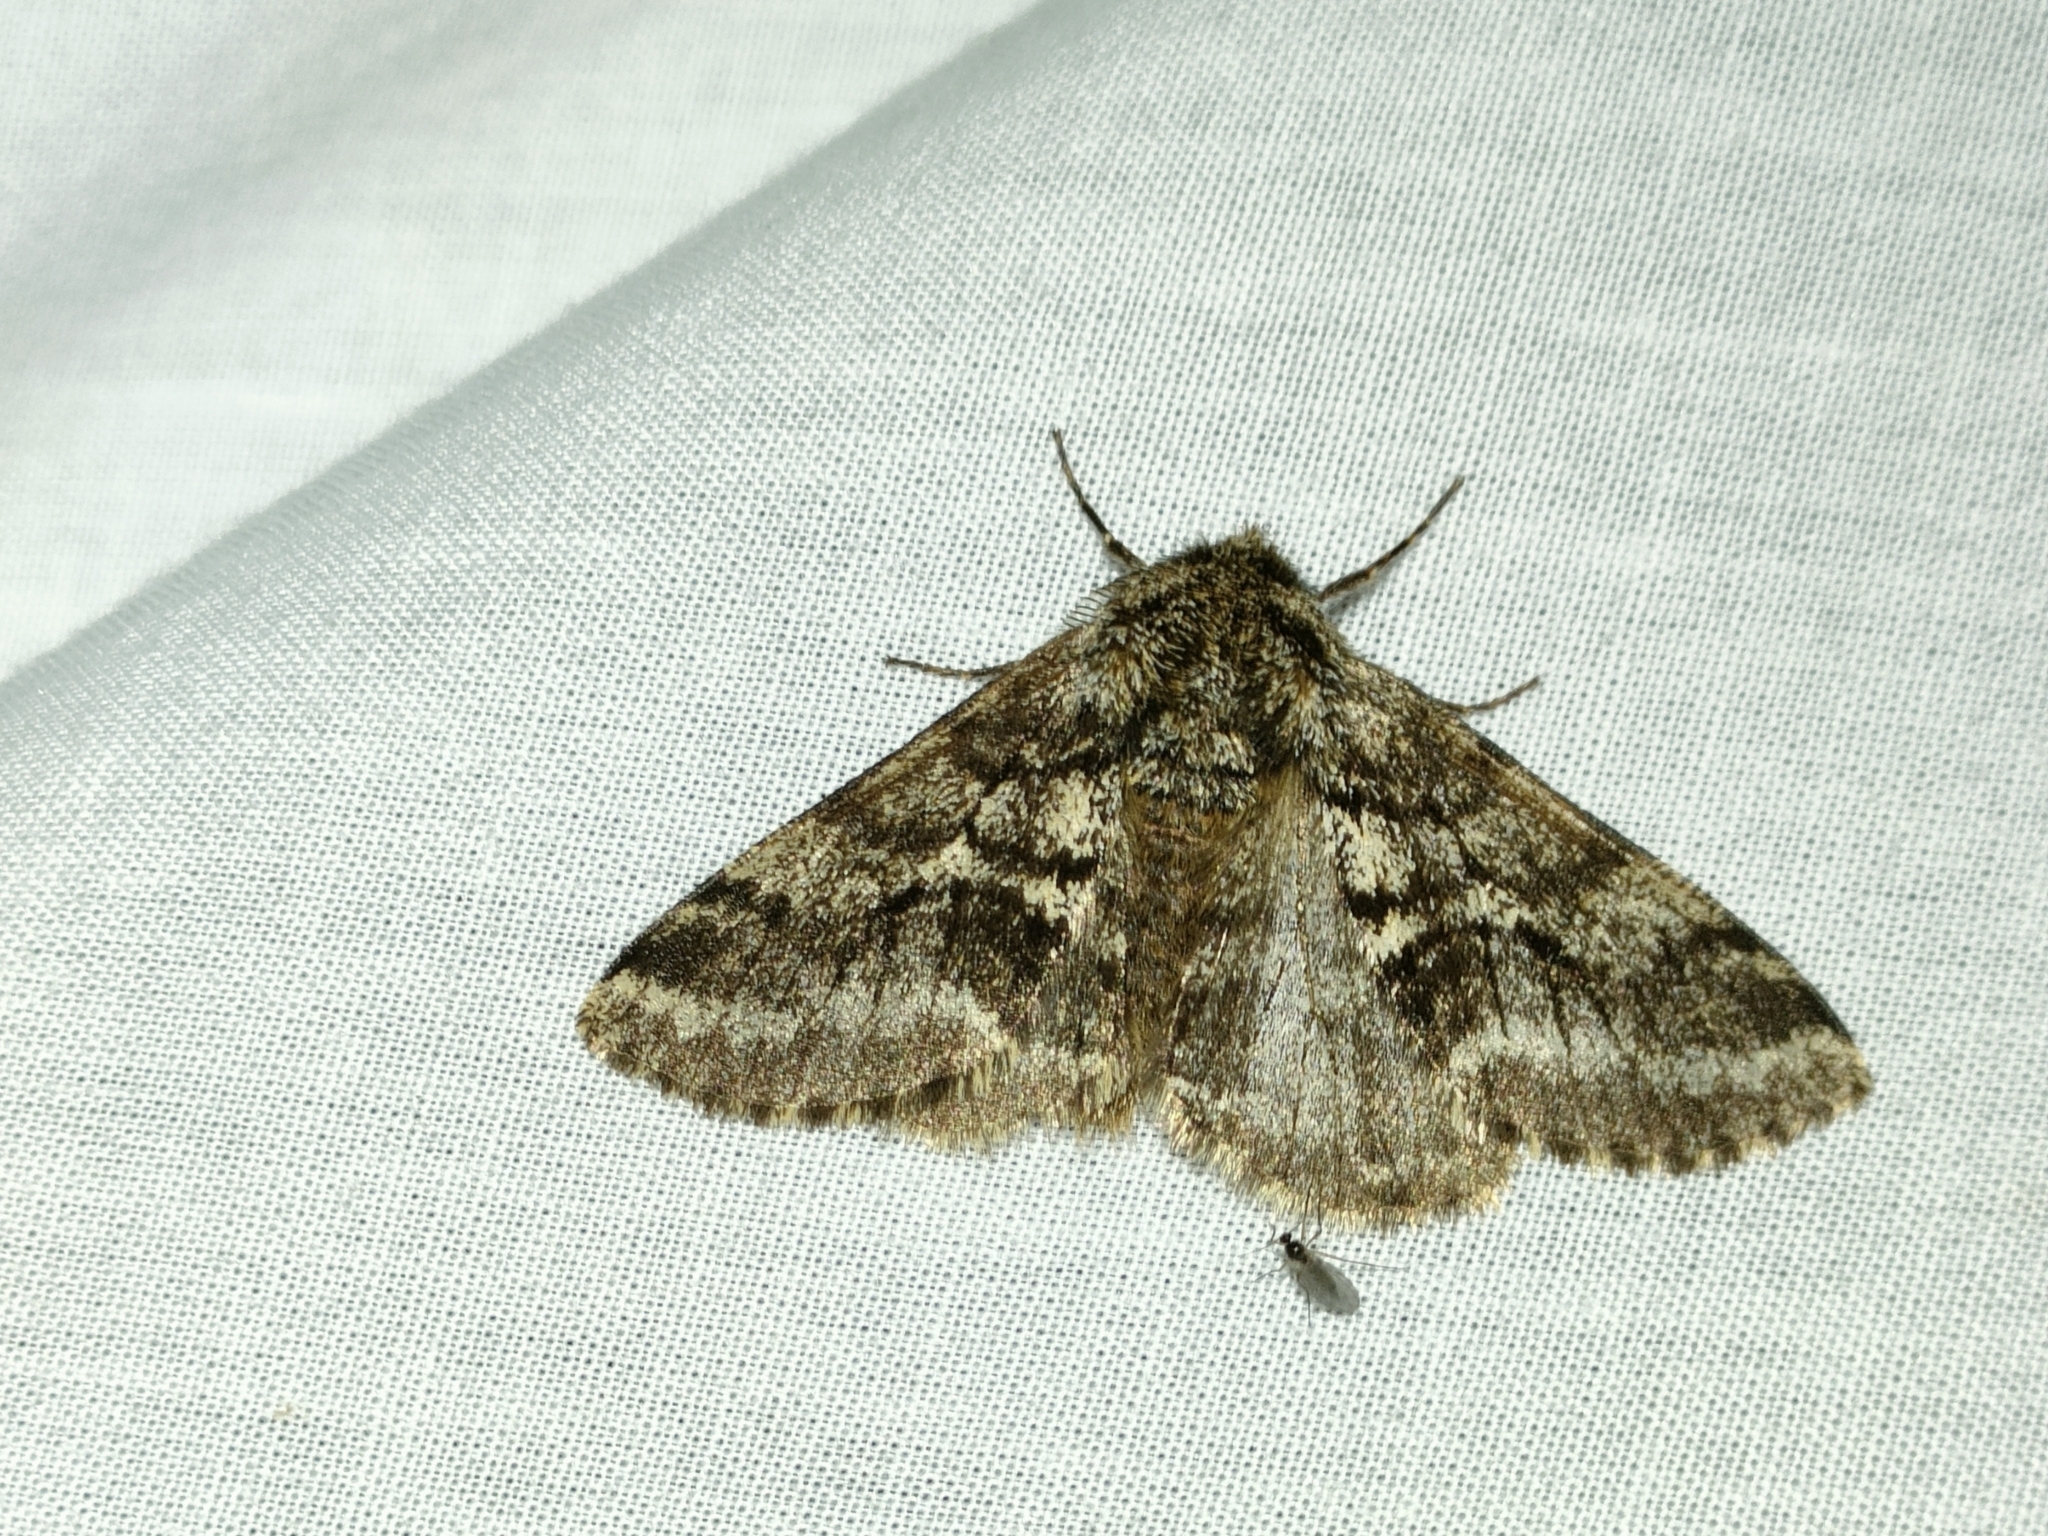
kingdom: Animalia
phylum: Arthropoda
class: Insecta
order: Lepidoptera
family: Geometridae
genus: Lycia
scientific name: Lycia hirtaria
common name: Brindled beauty
